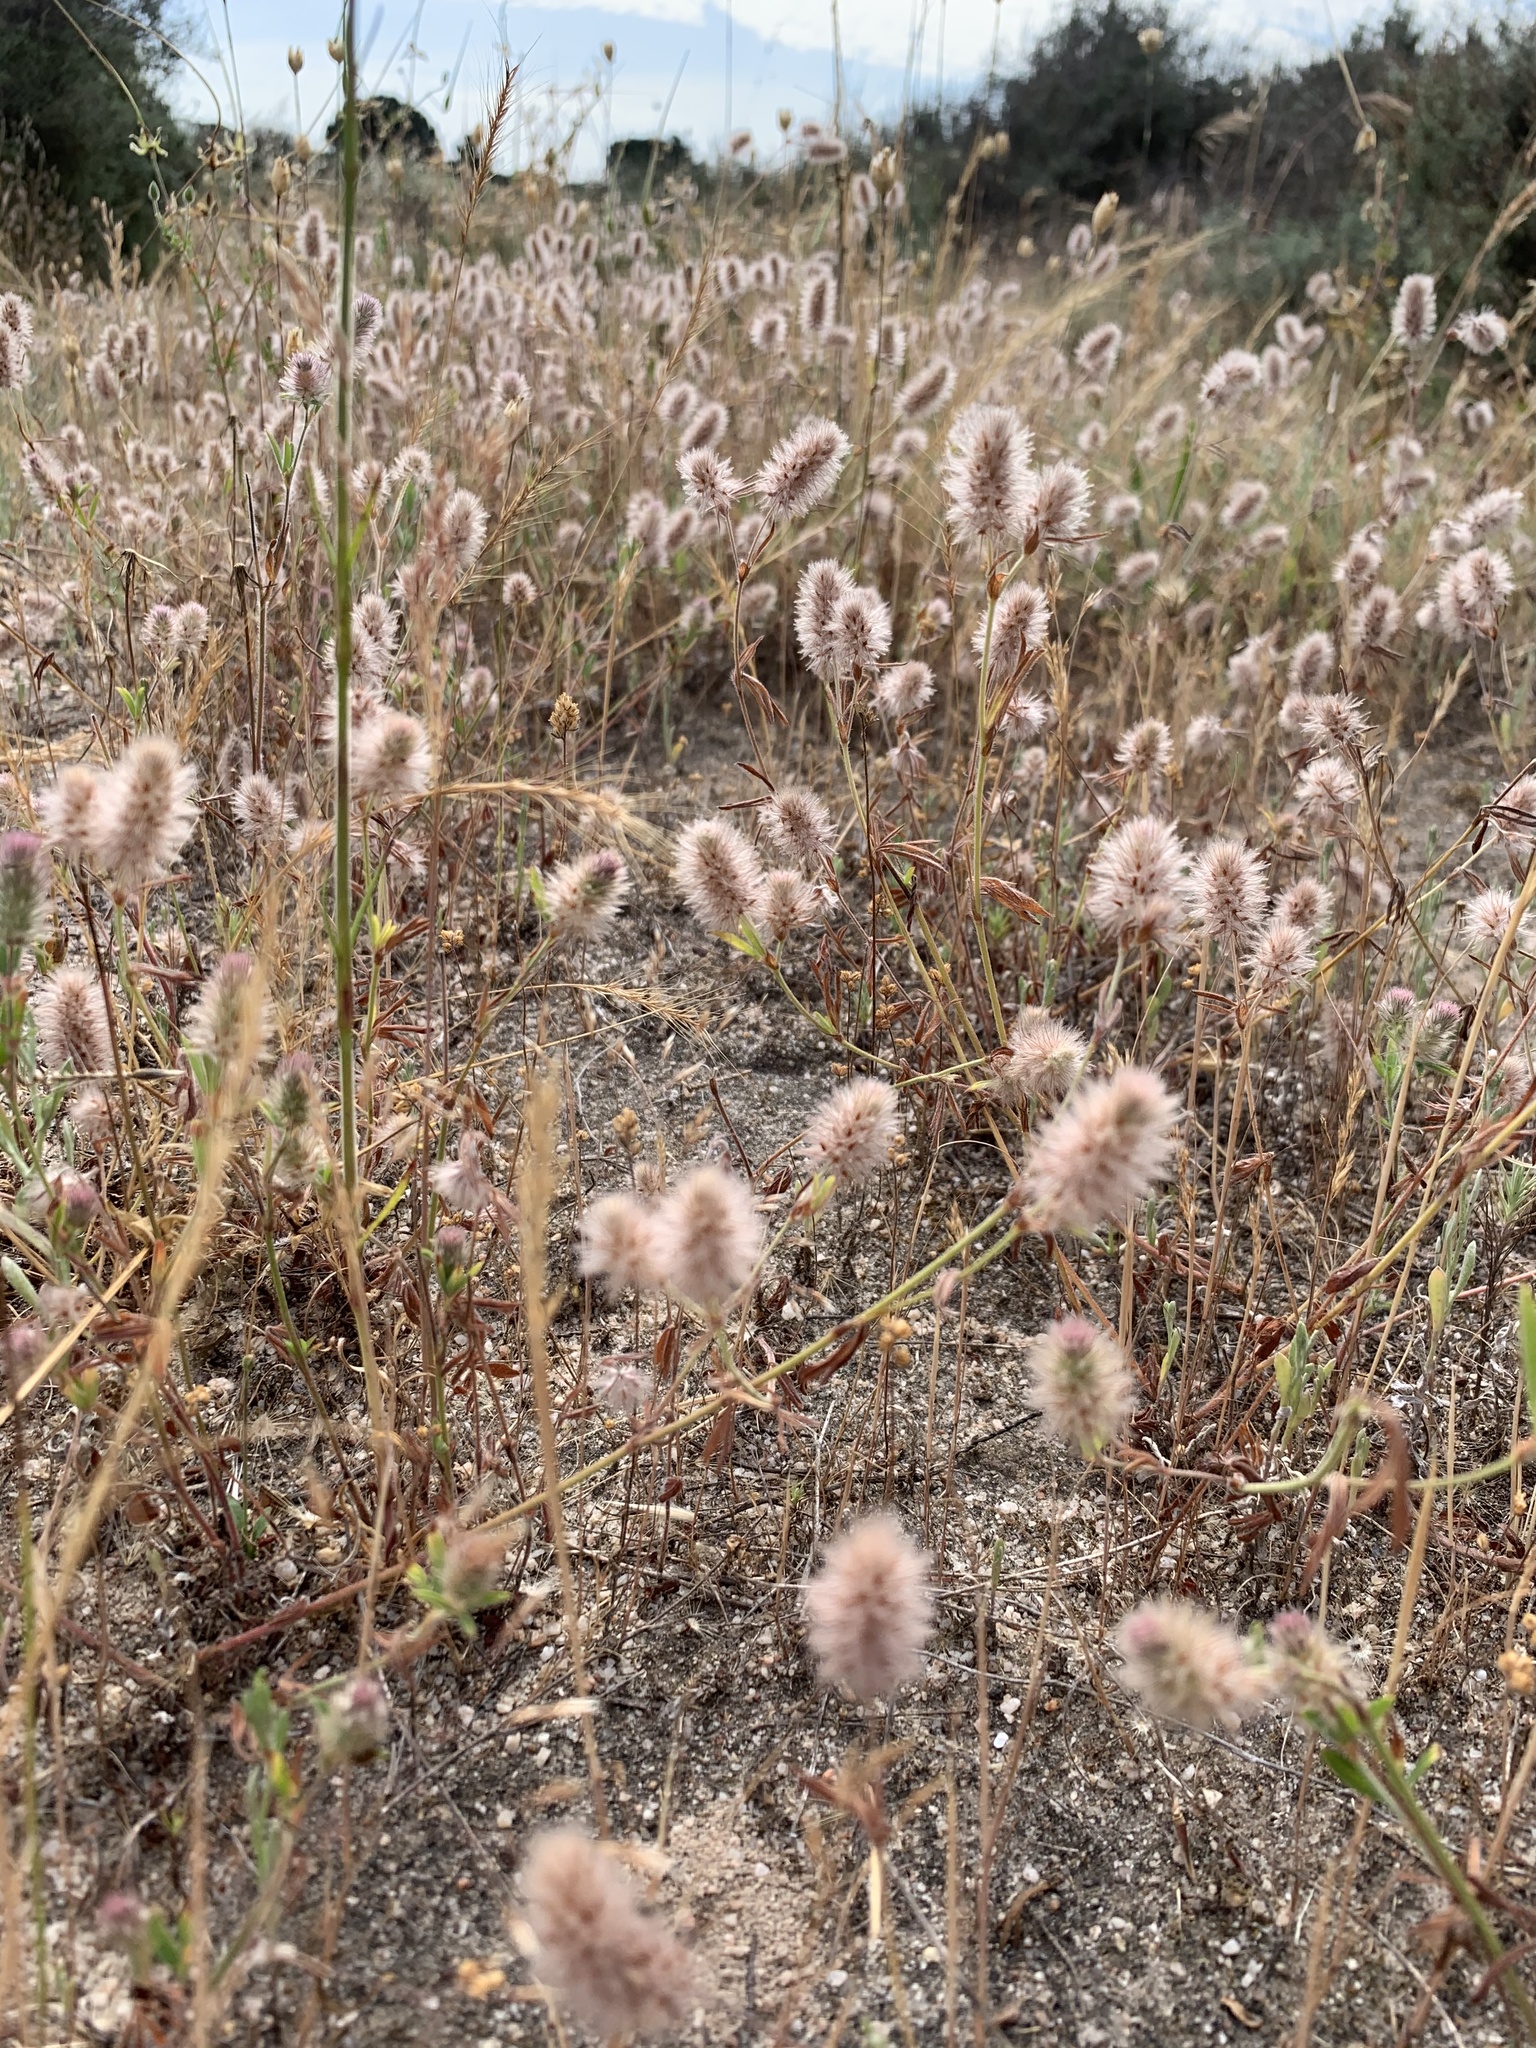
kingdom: Plantae
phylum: Tracheophyta
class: Magnoliopsida
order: Fabales
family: Fabaceae
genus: Trifolium
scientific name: Trifolium arvense
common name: Hare's-foot clover
